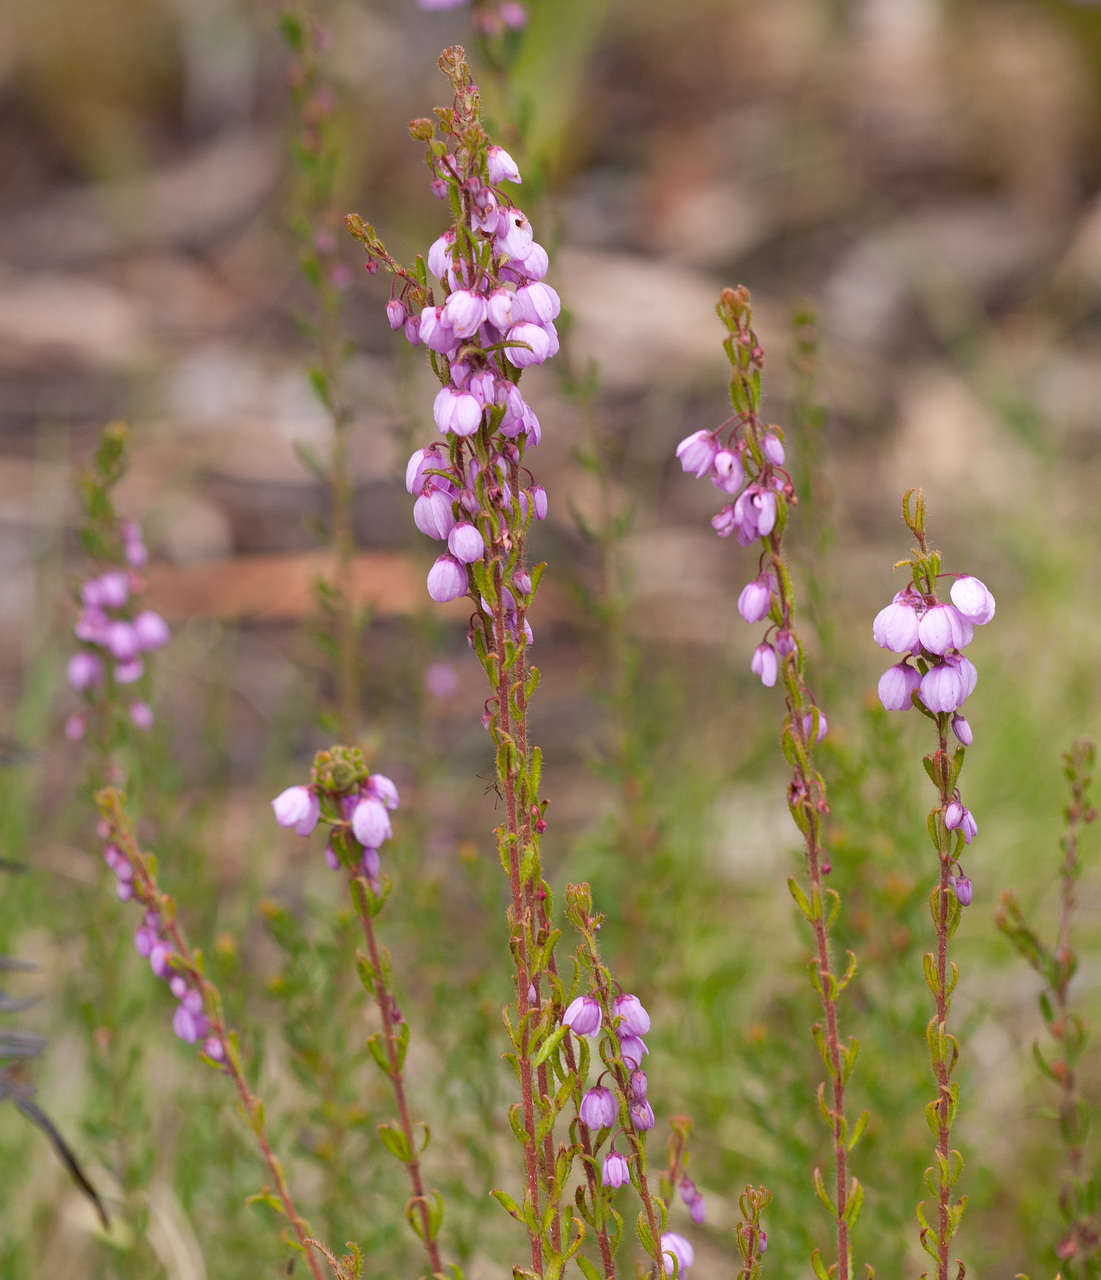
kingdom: Plantae
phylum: Tracheophyta
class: Magnoliopsida
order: Oxalidales
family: Elaeocarpaceae
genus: Tetratheca
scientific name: Tetratheca pilosa
